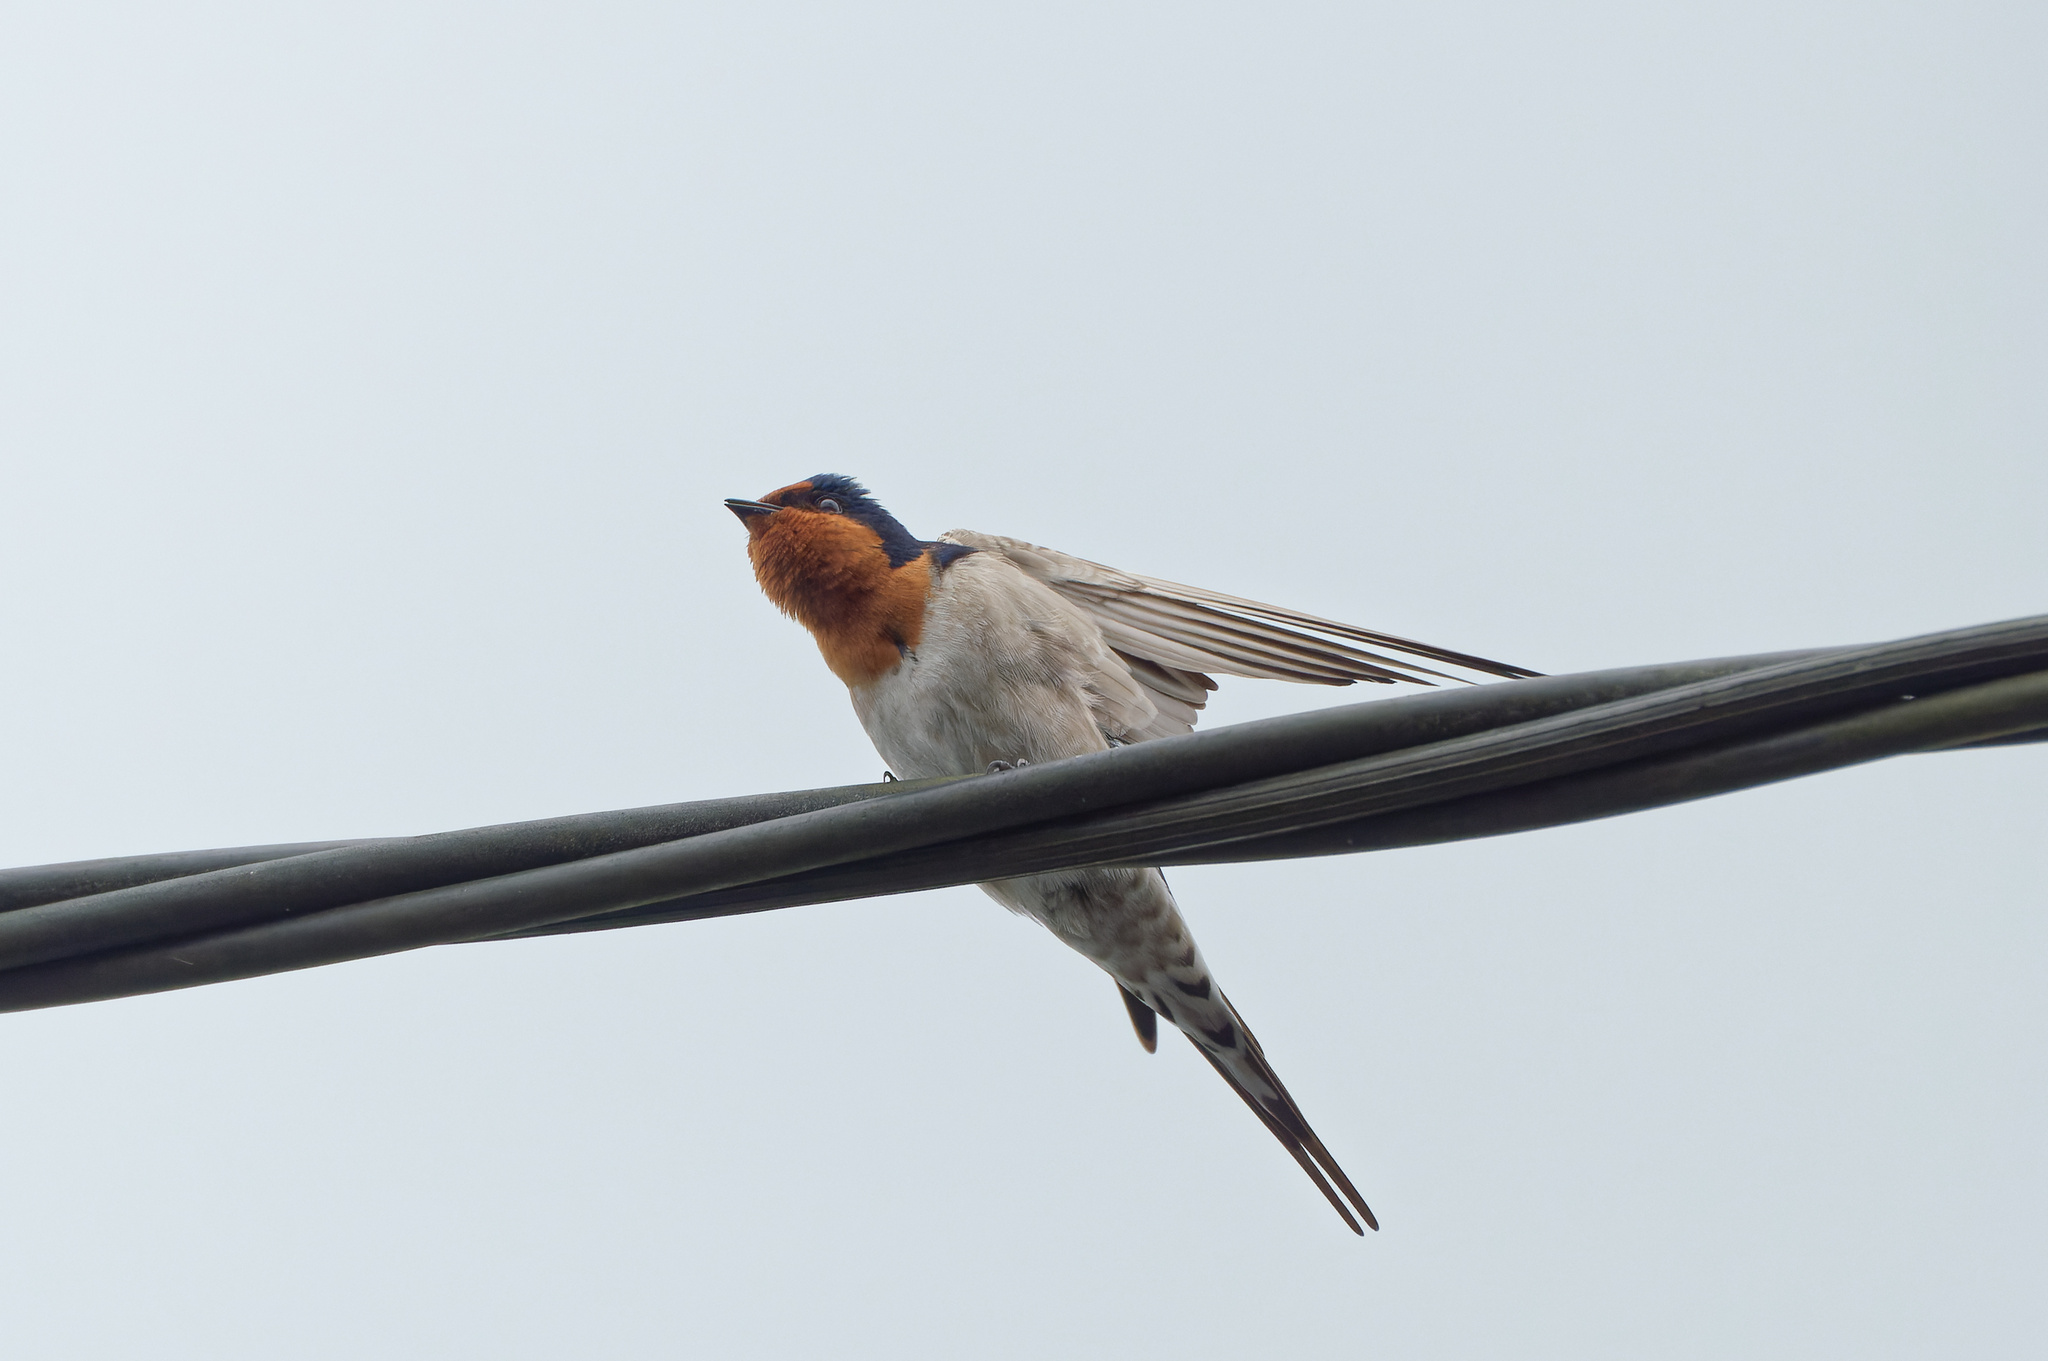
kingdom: Animalia
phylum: Chordata
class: Aves
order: Passeriformes
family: Hirundinidae
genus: Hirundo
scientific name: Hirundo neoxena
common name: Welcome swallow
